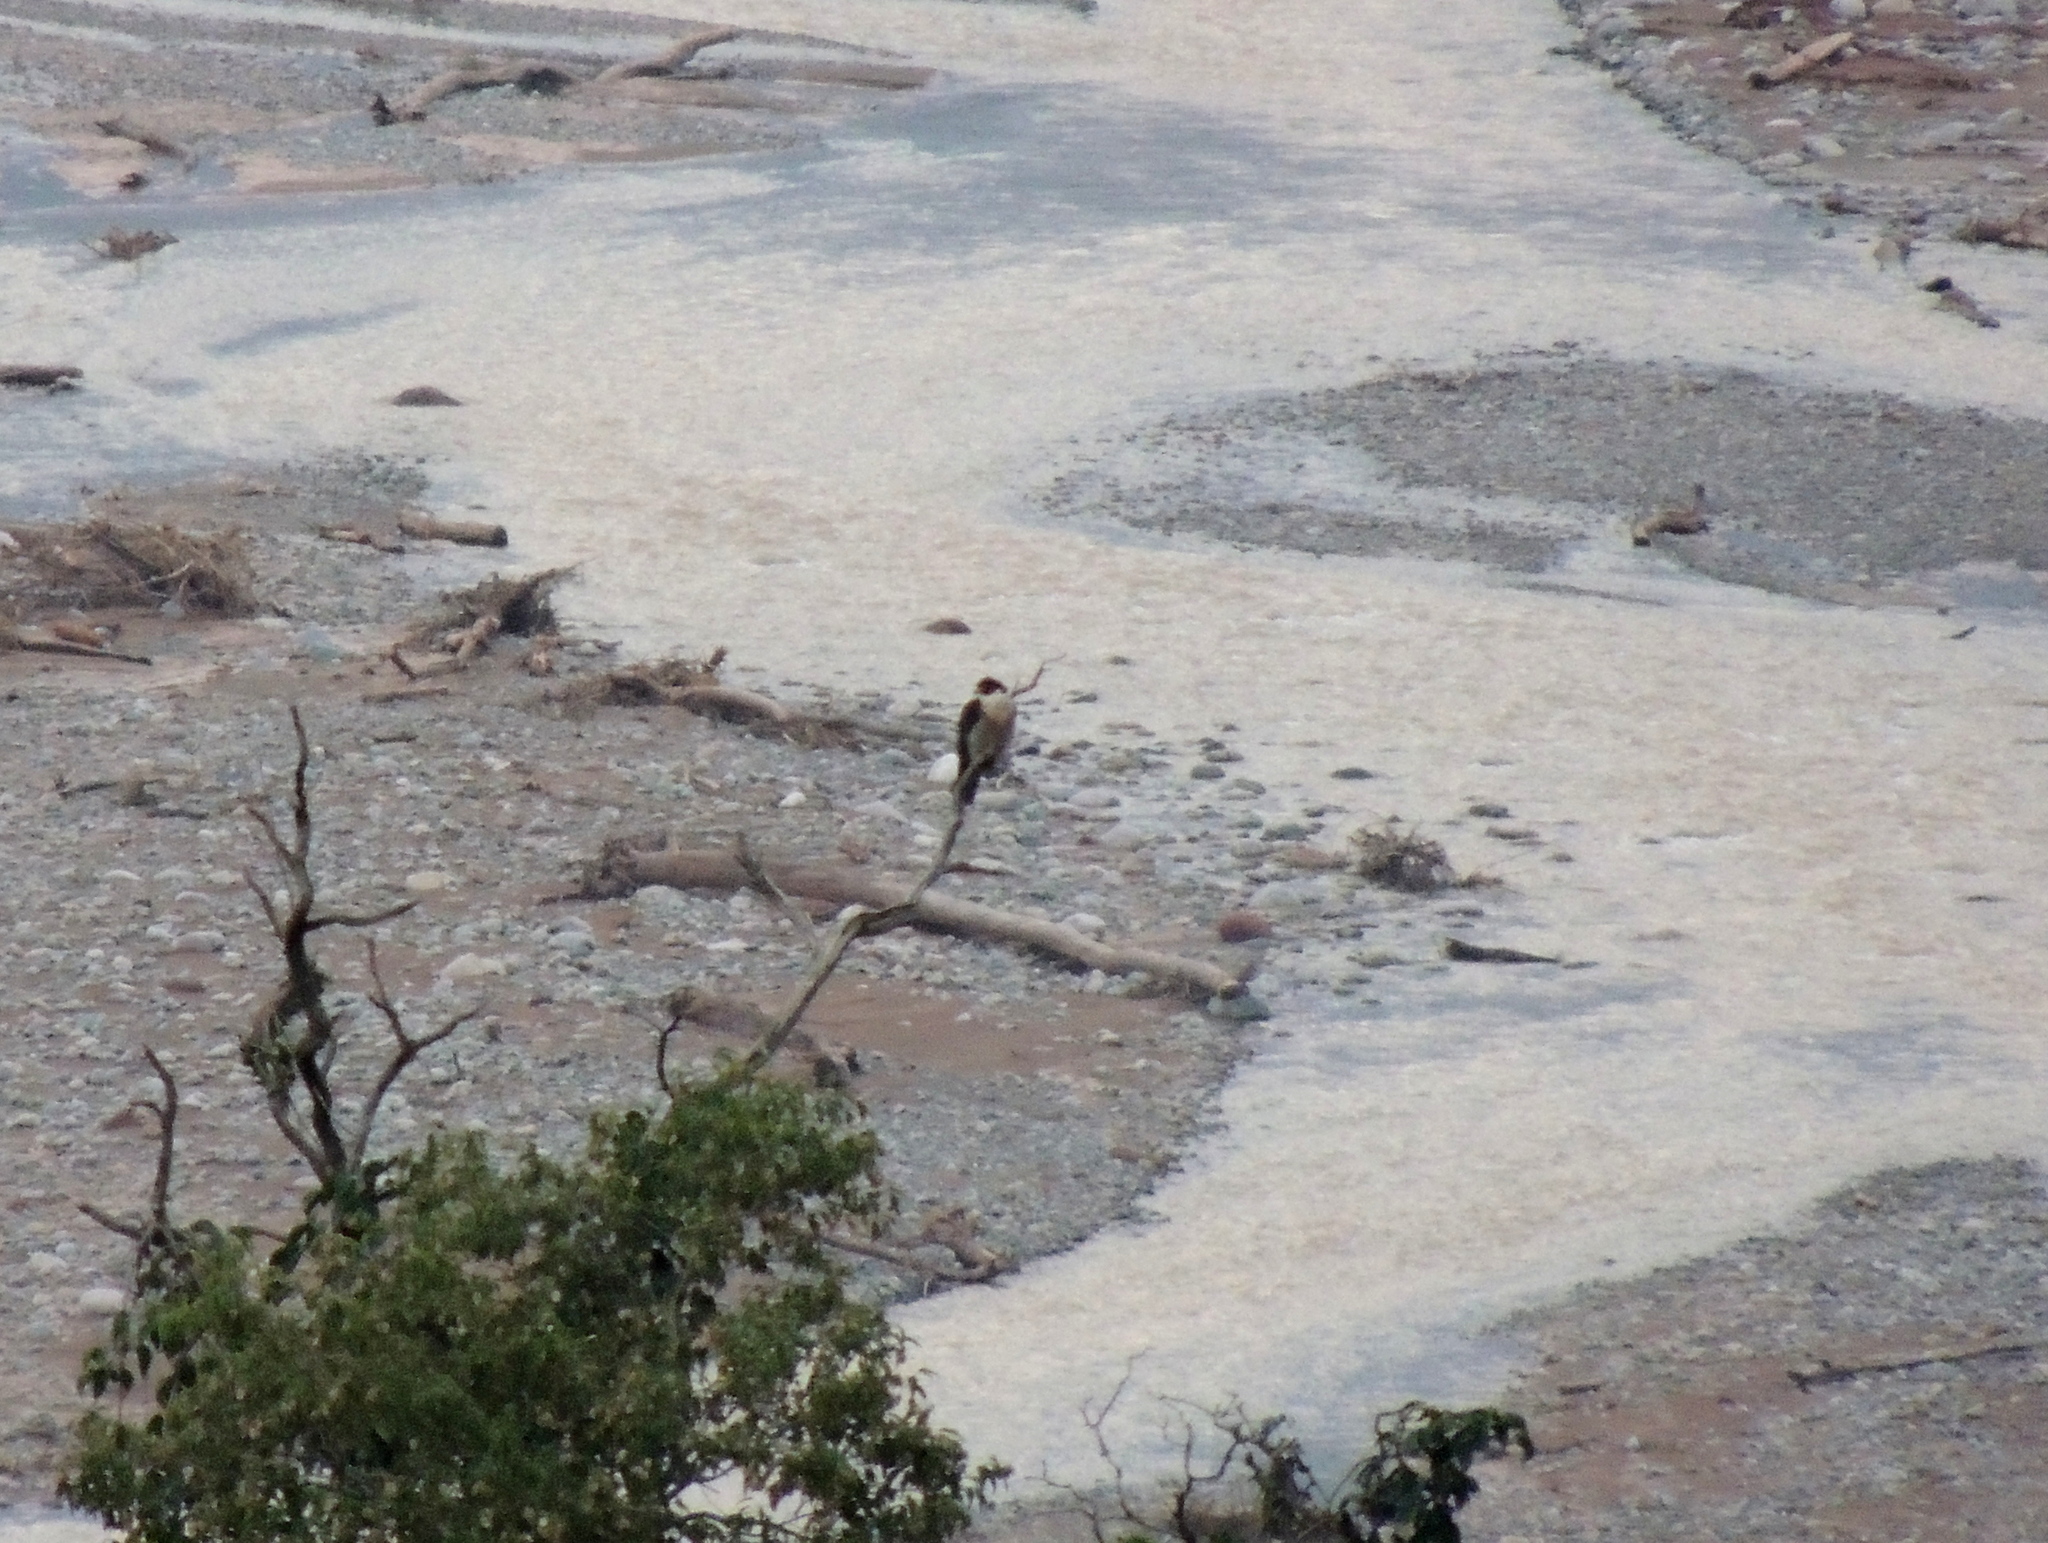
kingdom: Animalia
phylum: Chordata
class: Aves
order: Falconiformes
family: Falconidae
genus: Falco
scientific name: Falco peregrinus
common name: Peregrine falcon
